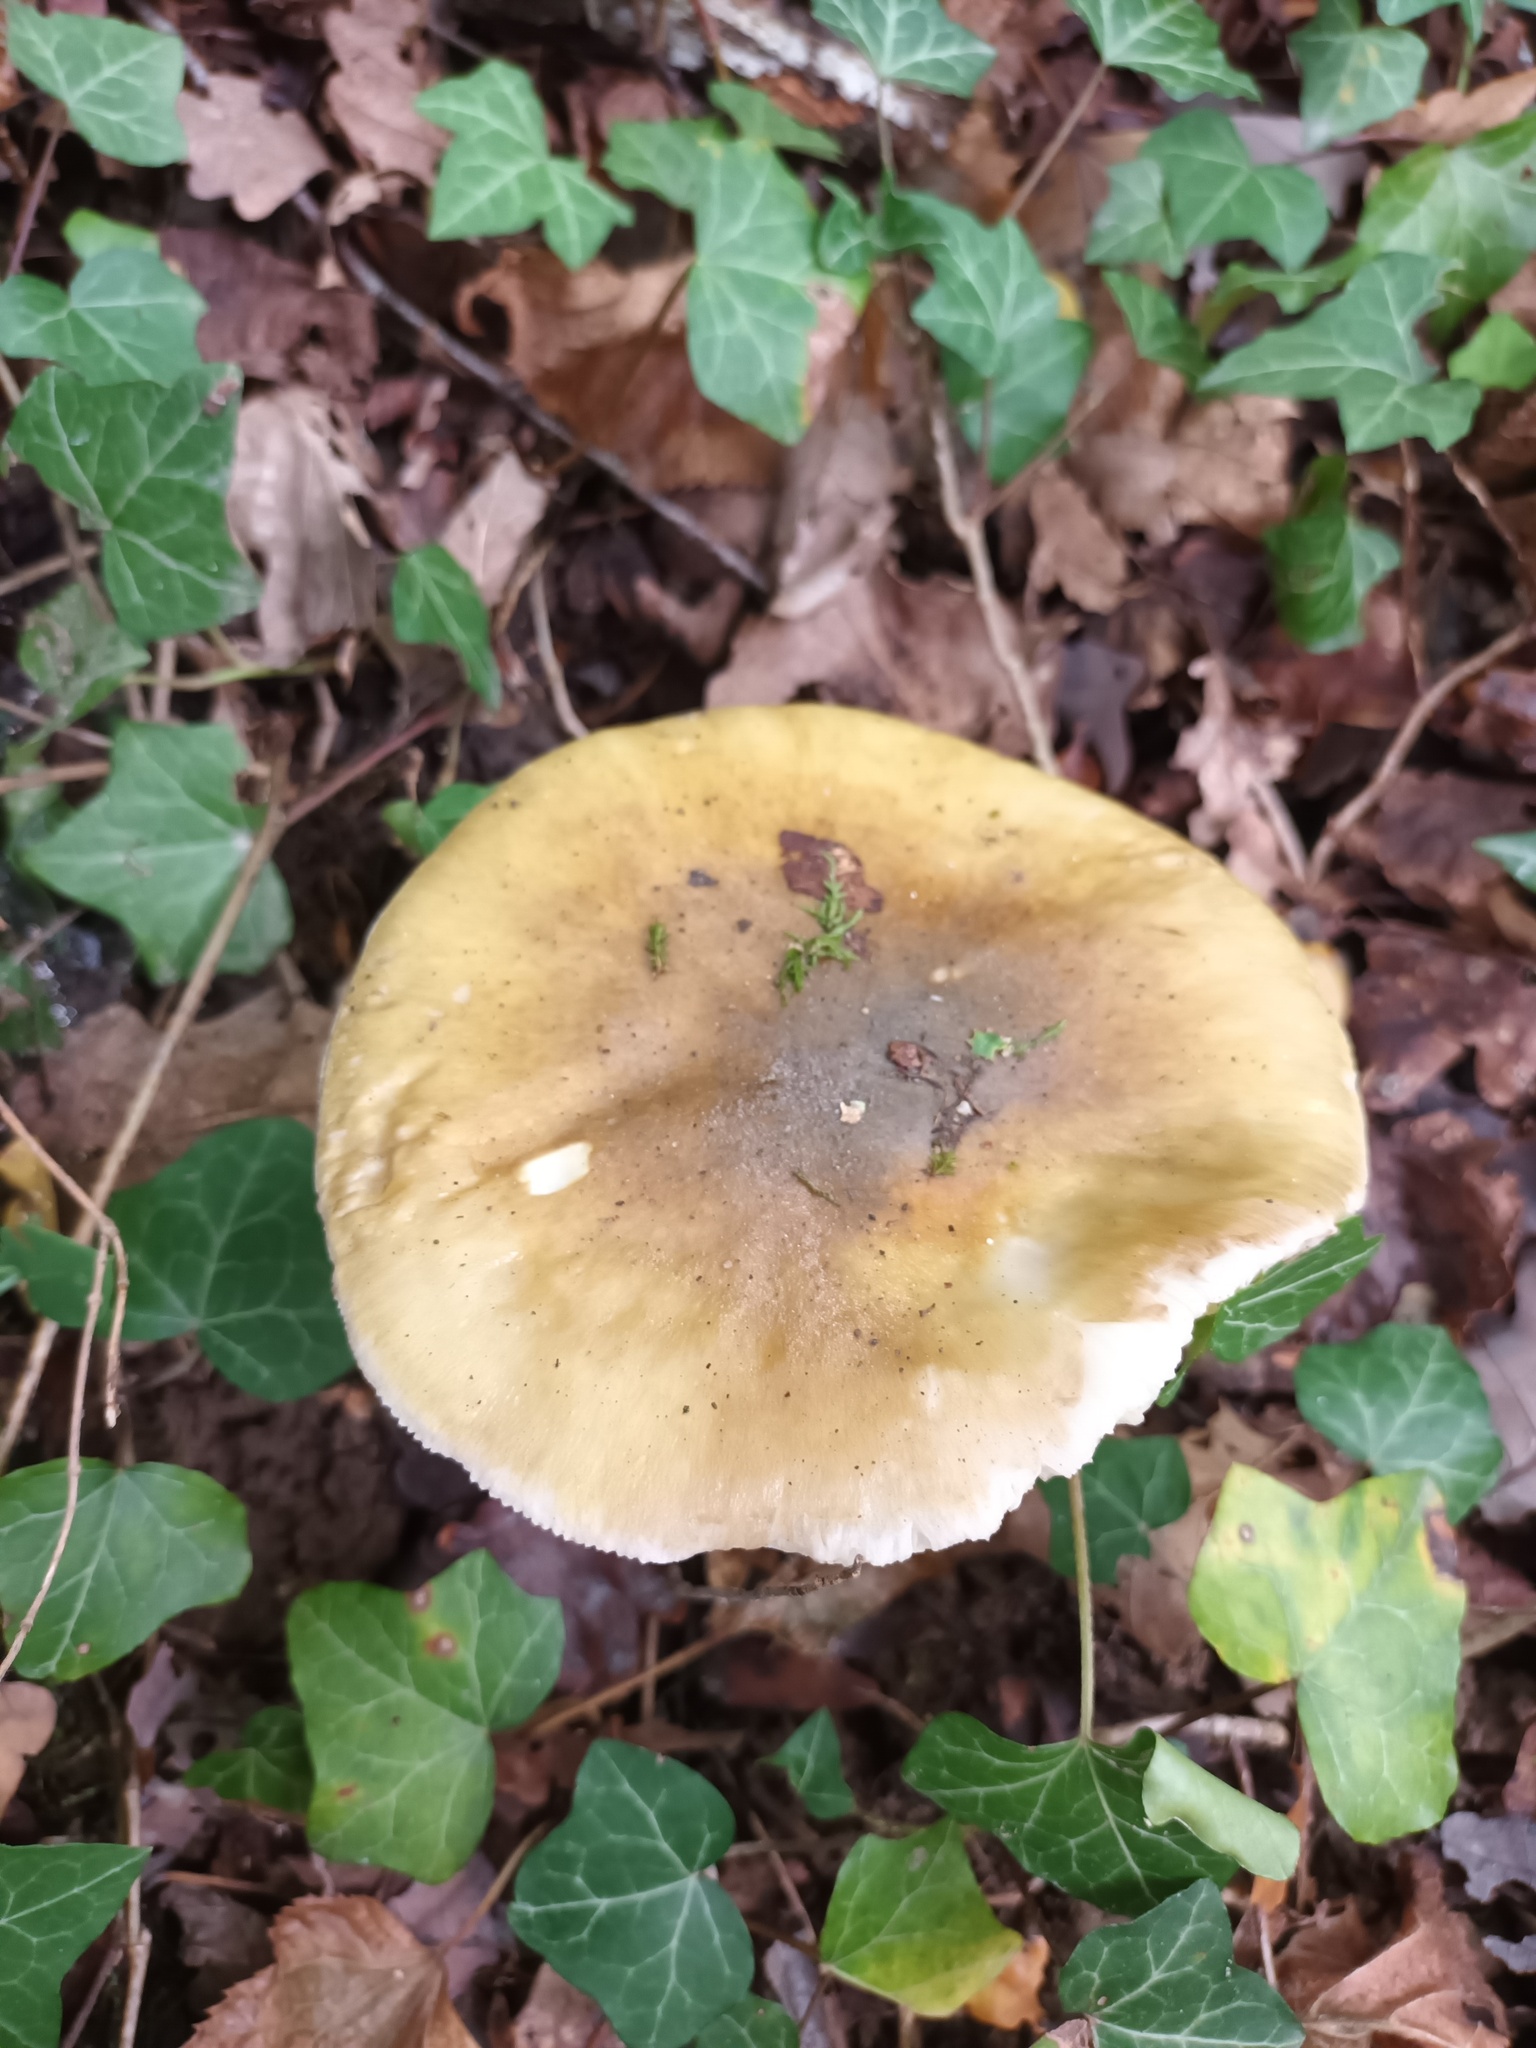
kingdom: Fungi
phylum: Basidiomycota
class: Agaricomycetes
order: Agaricales
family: Amanitaceae
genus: Amanita
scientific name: Amanita phalloides
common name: Death cap
